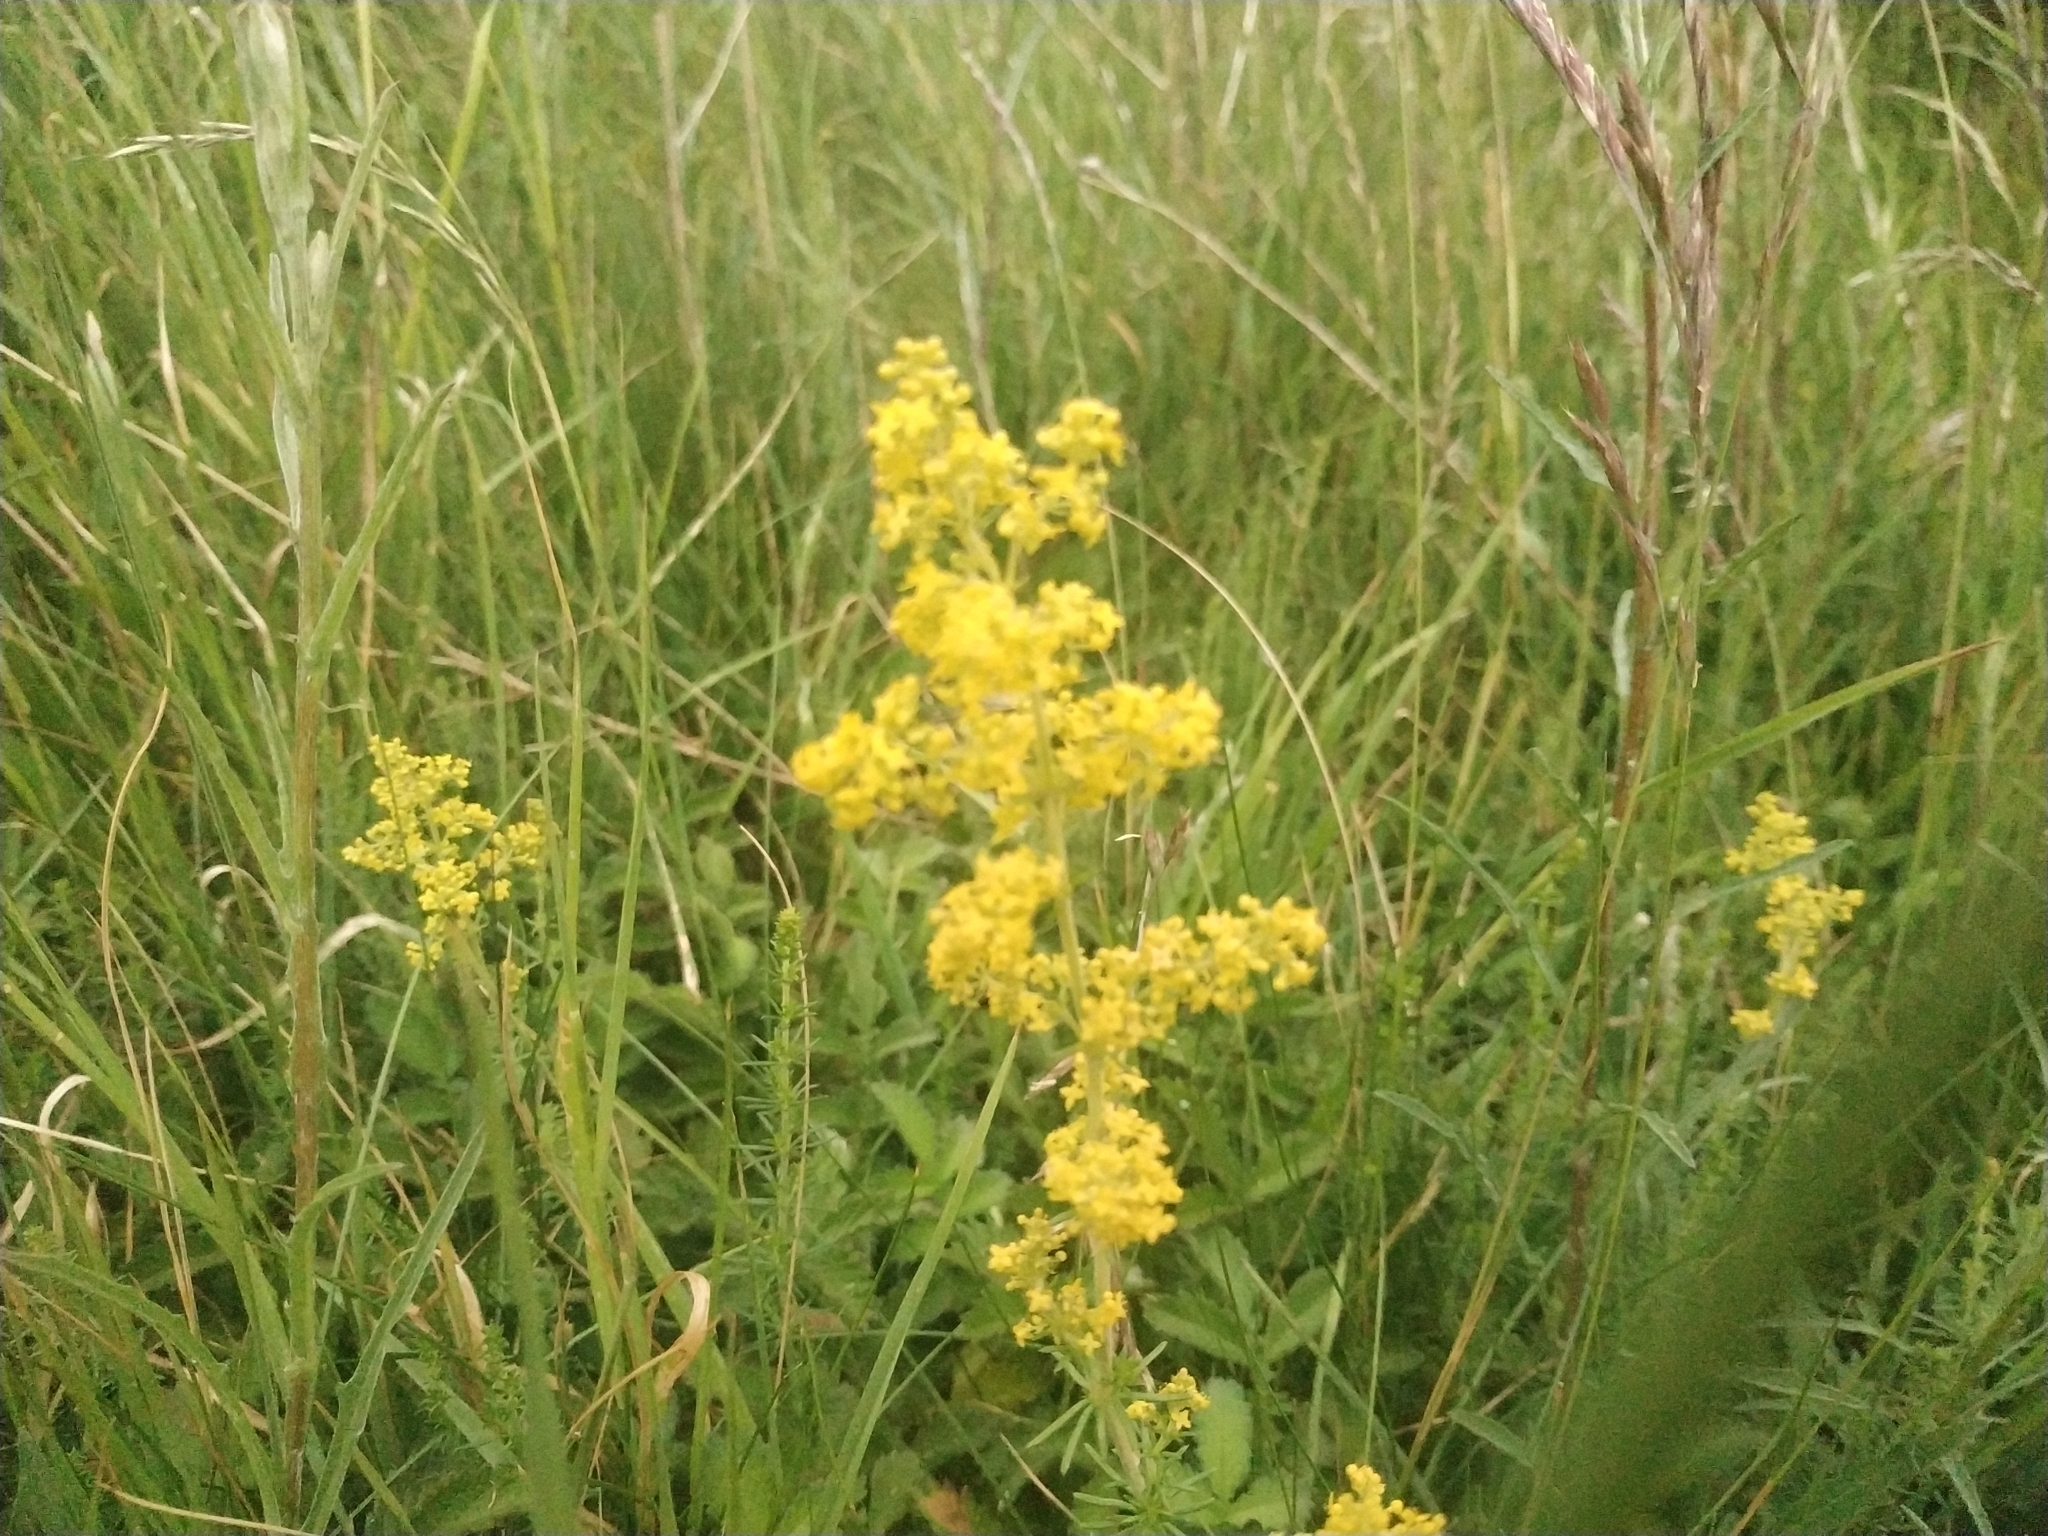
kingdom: Plantae
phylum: Tracheophyta
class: Magnoliopsida
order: Gentianales
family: Rubiaceae
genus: Galium
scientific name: Galium verum
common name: Lady's bedstraw
